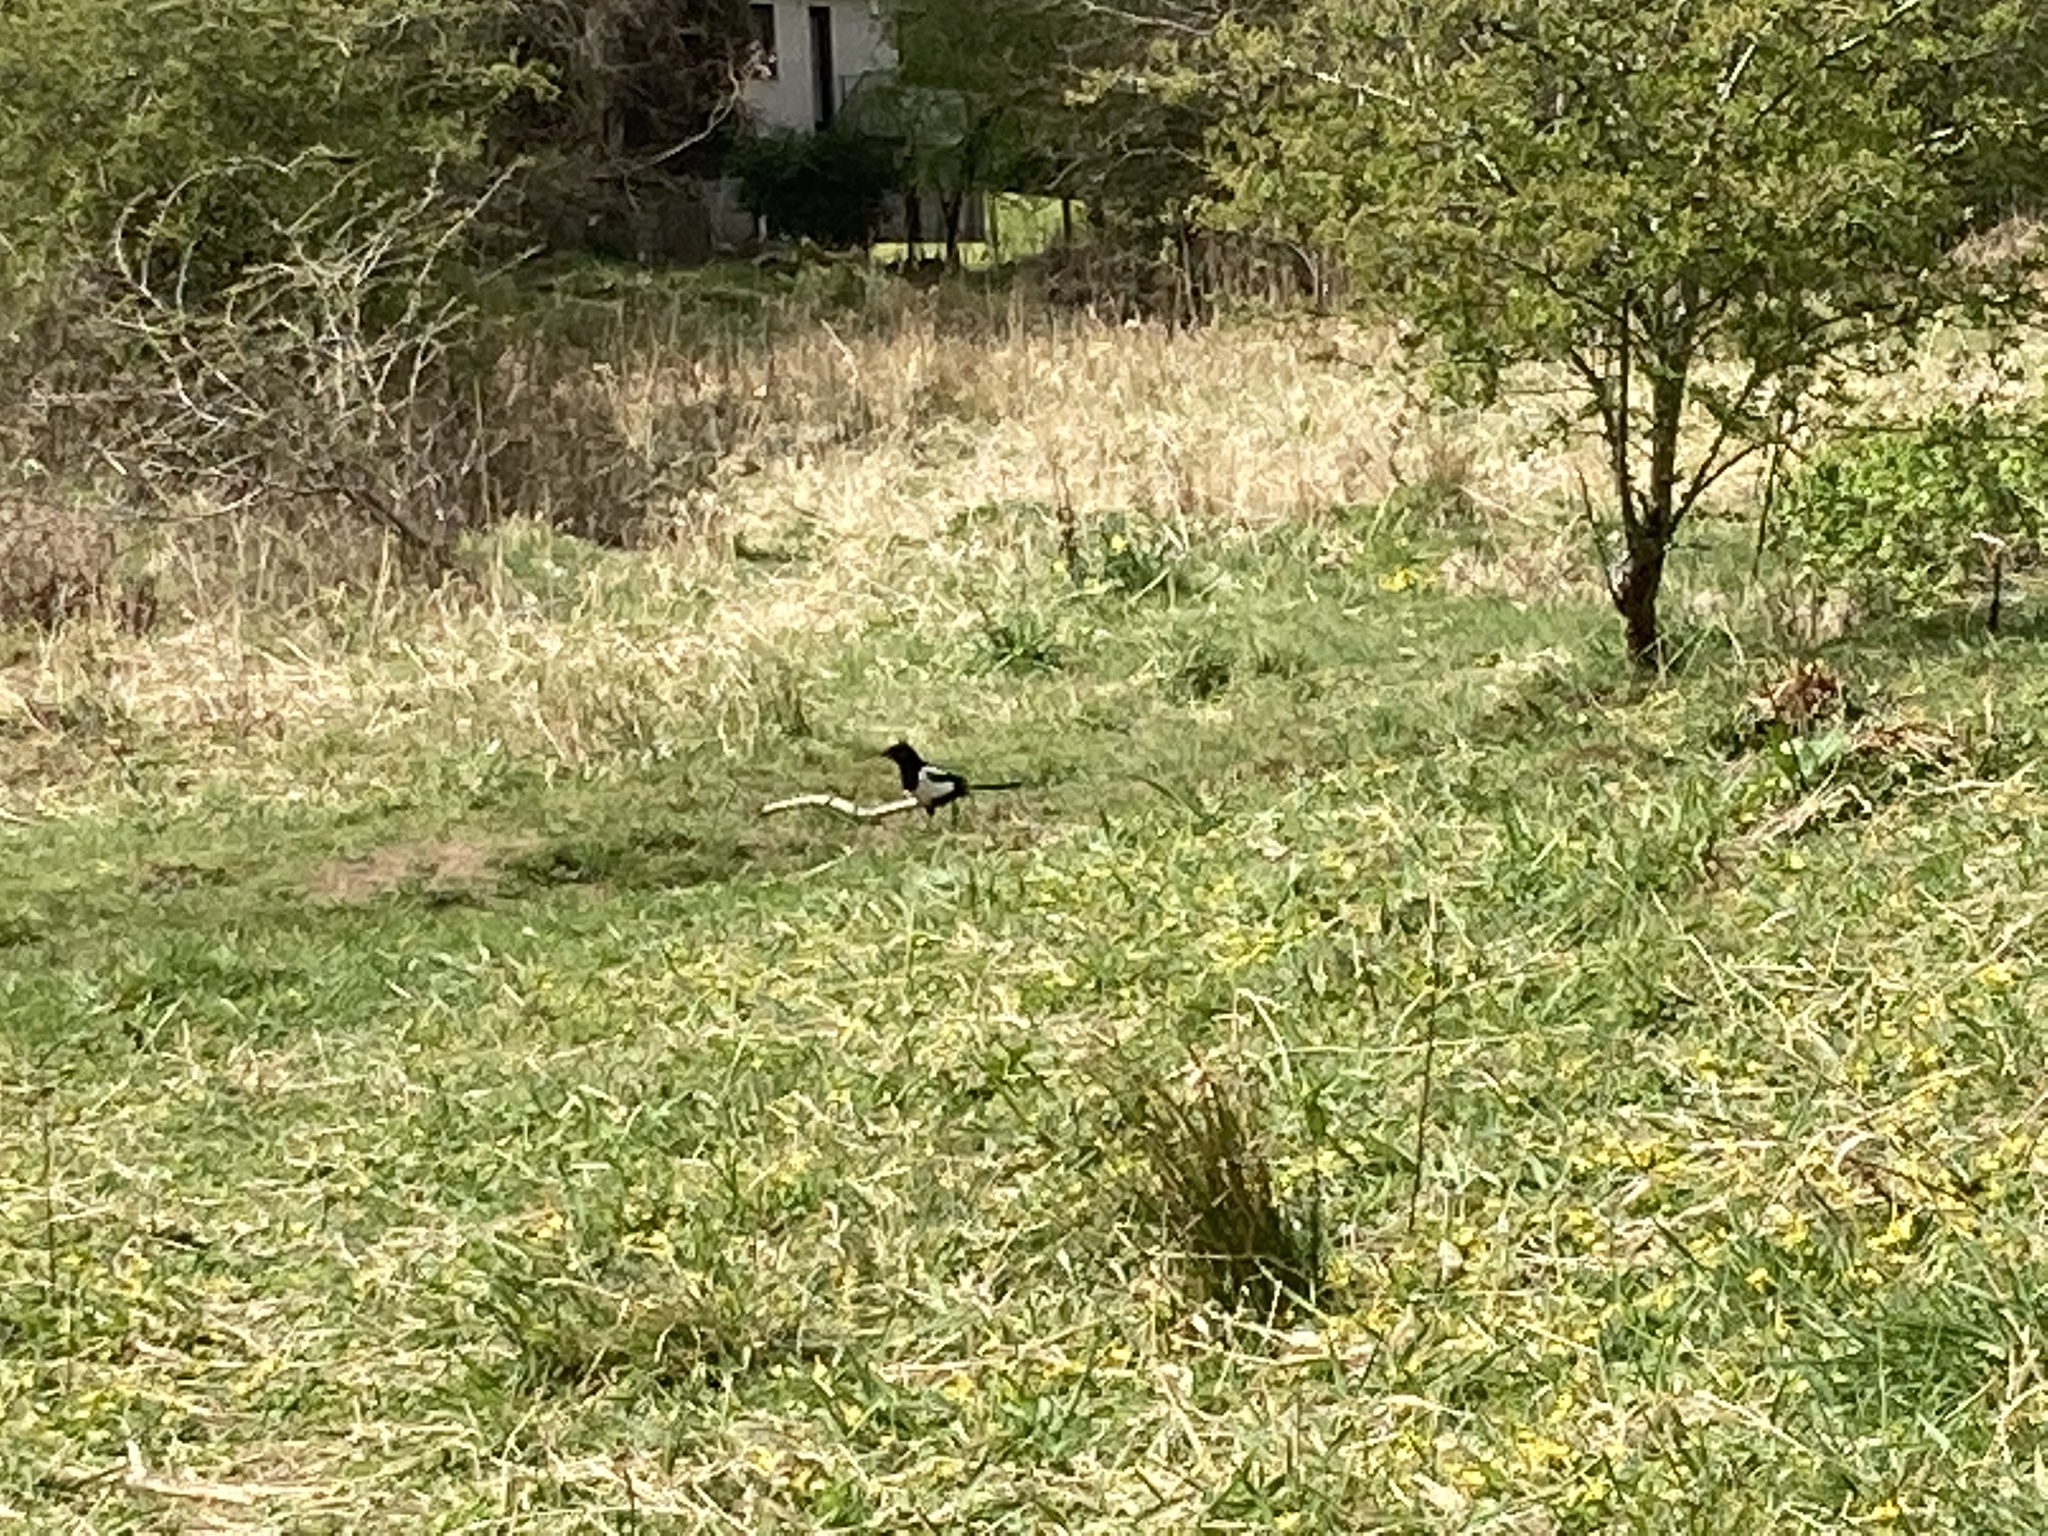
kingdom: Animalia
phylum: Chordata
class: Aves
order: Passeriformes
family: Corvidae
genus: Pica
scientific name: Pica pica
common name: Eurasian magpie
